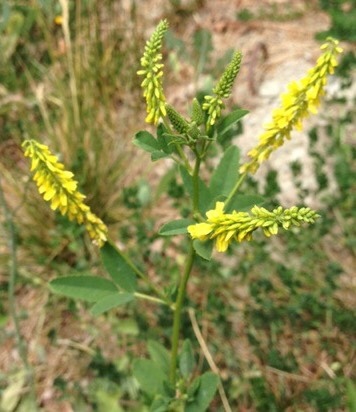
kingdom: Plantae
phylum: Tracheophyta
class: Magnoliopsida
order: Fabales
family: Fabaceae
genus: Melilotus
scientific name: Melilotus officinalis
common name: Sweetclover
